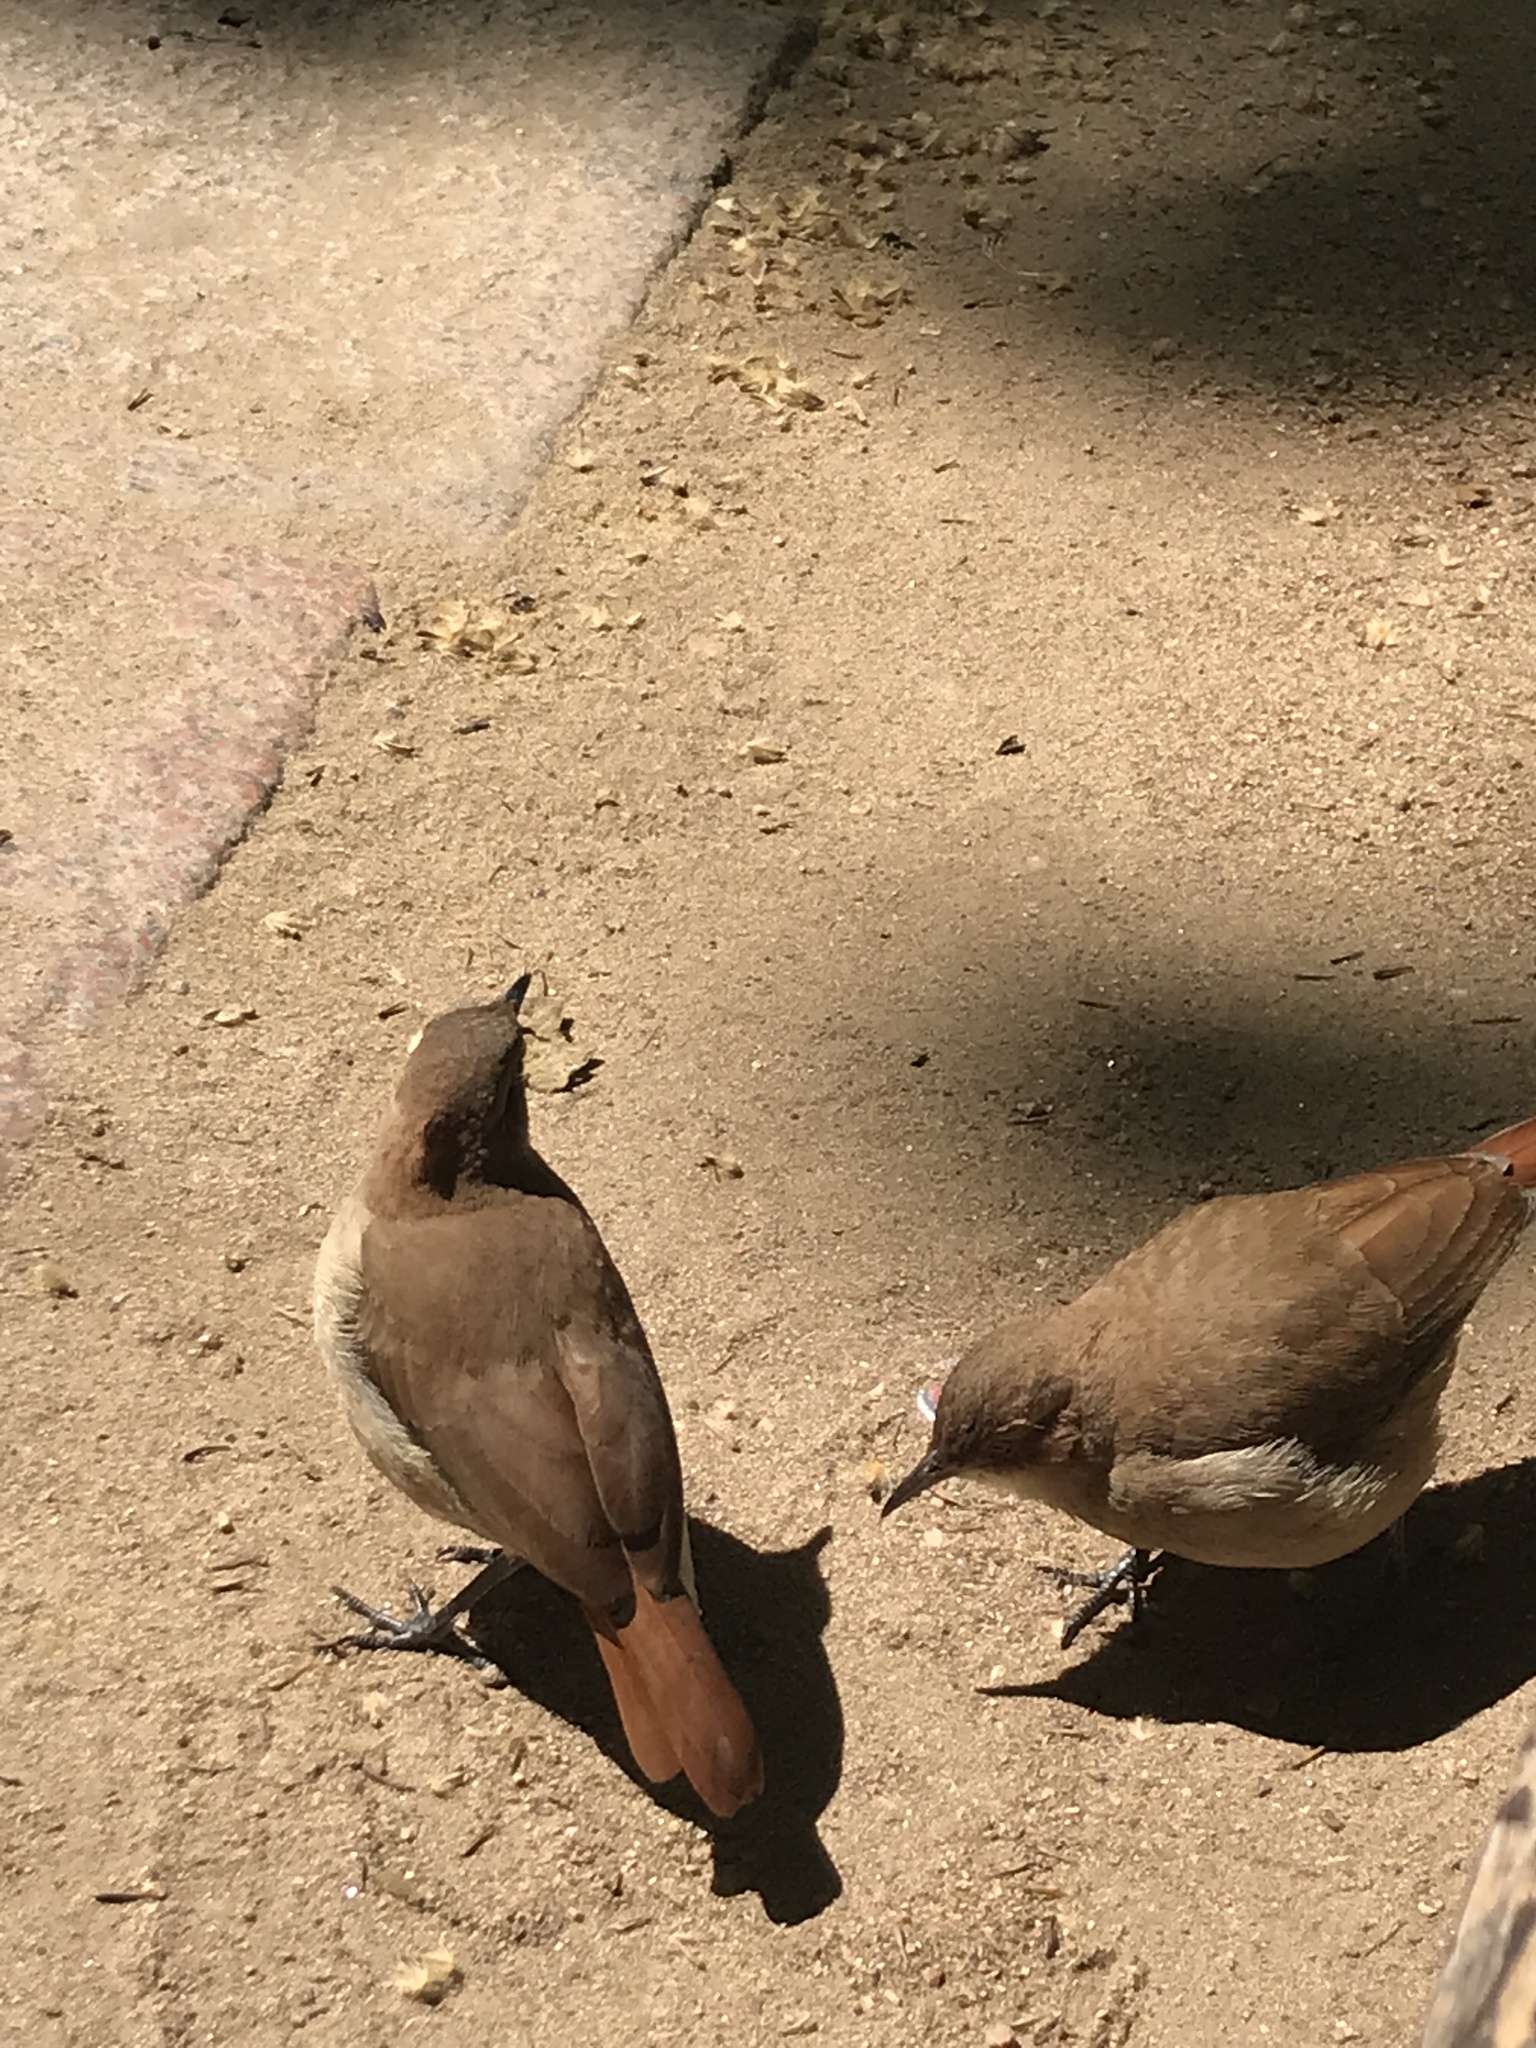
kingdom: Animalia
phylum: Chordata
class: Aves
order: Passeriformes
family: Furnariidae
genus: Furnarius
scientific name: Furnarius rufus
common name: Rufous hornero
